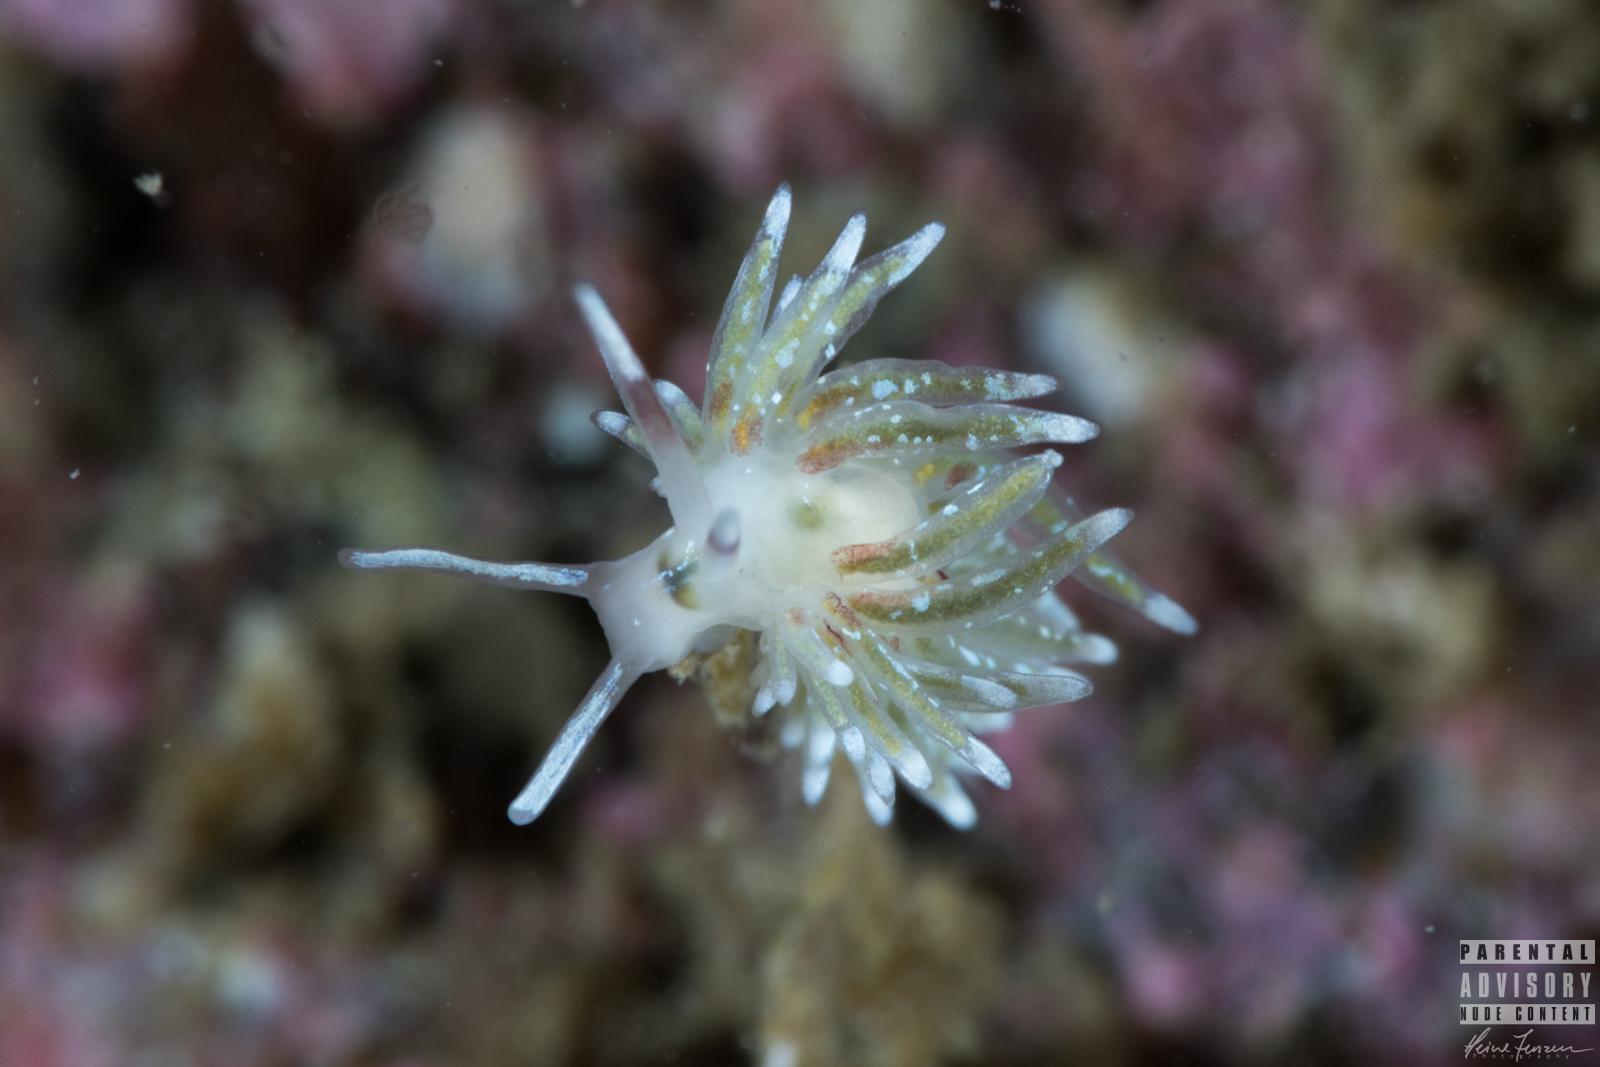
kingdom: Animalia
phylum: Mollusca
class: Gastropoda
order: Nudibranchia
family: Trinchesiidae
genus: Rubramoena
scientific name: Rubramoena rubescens
